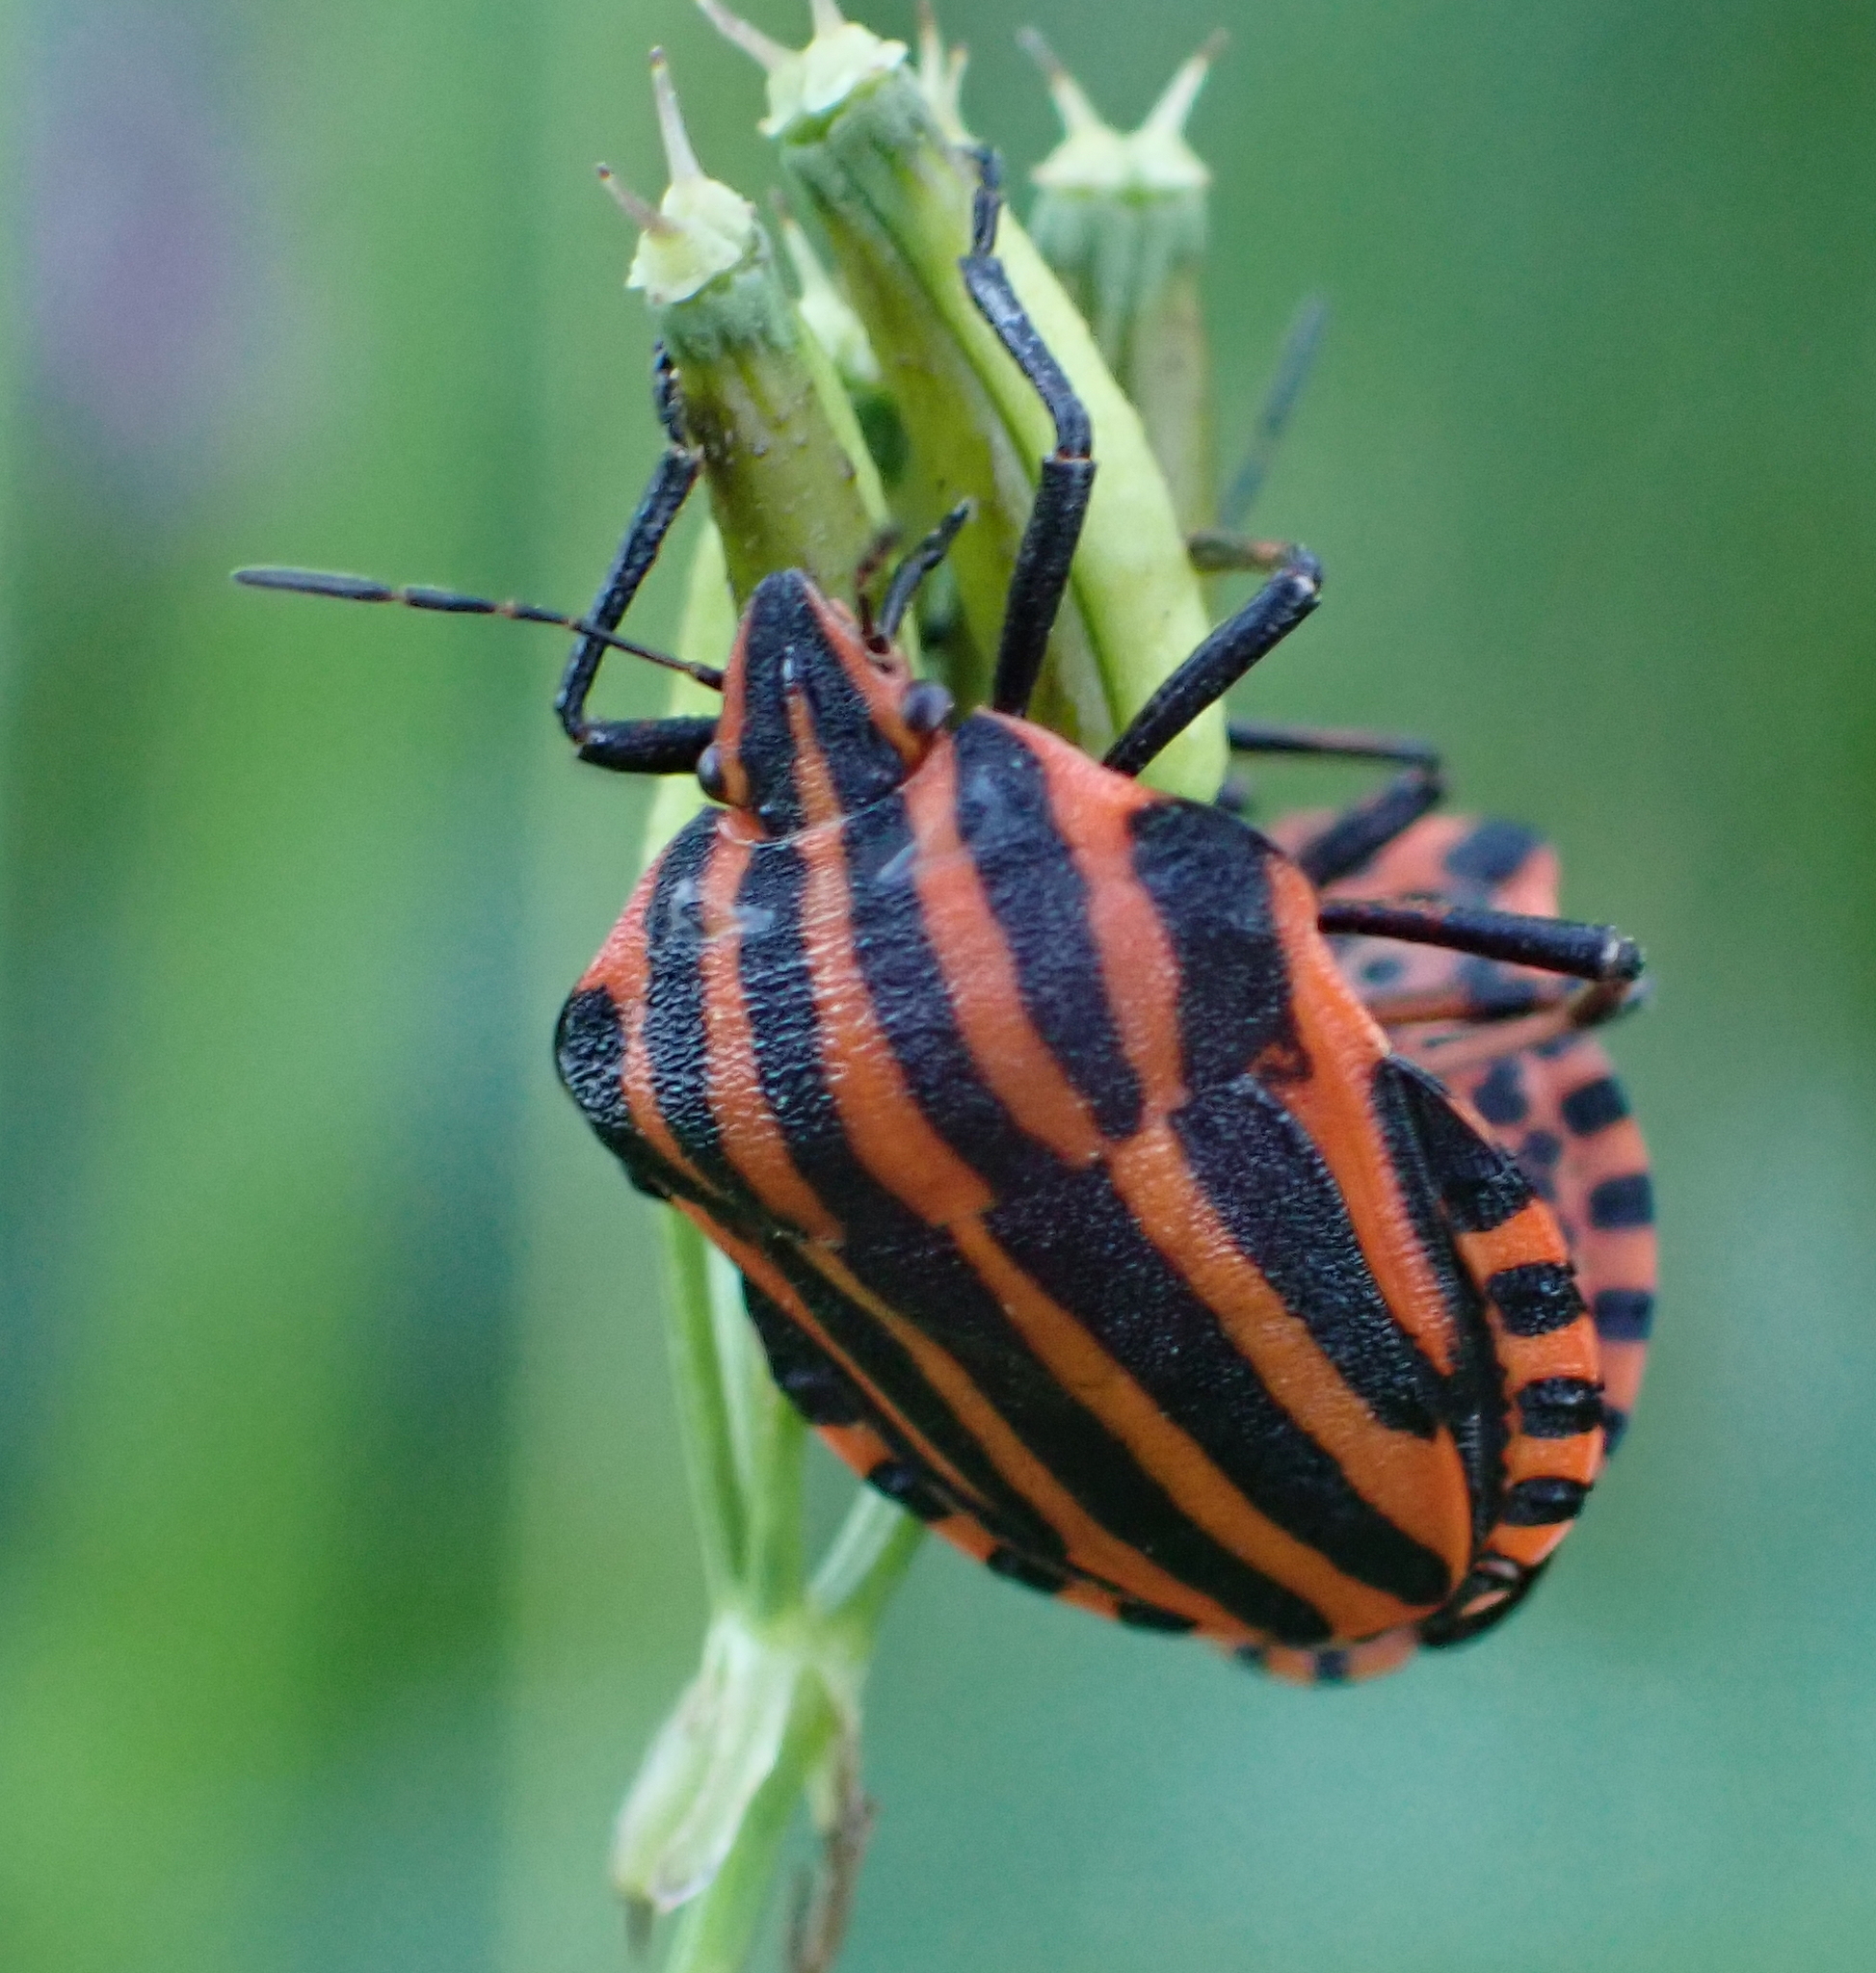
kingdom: Animalia
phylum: Arthropoda
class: Insecta
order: Hemiptera
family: Pentatomidae
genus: Graphosoma
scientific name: Graphosoma italicum
